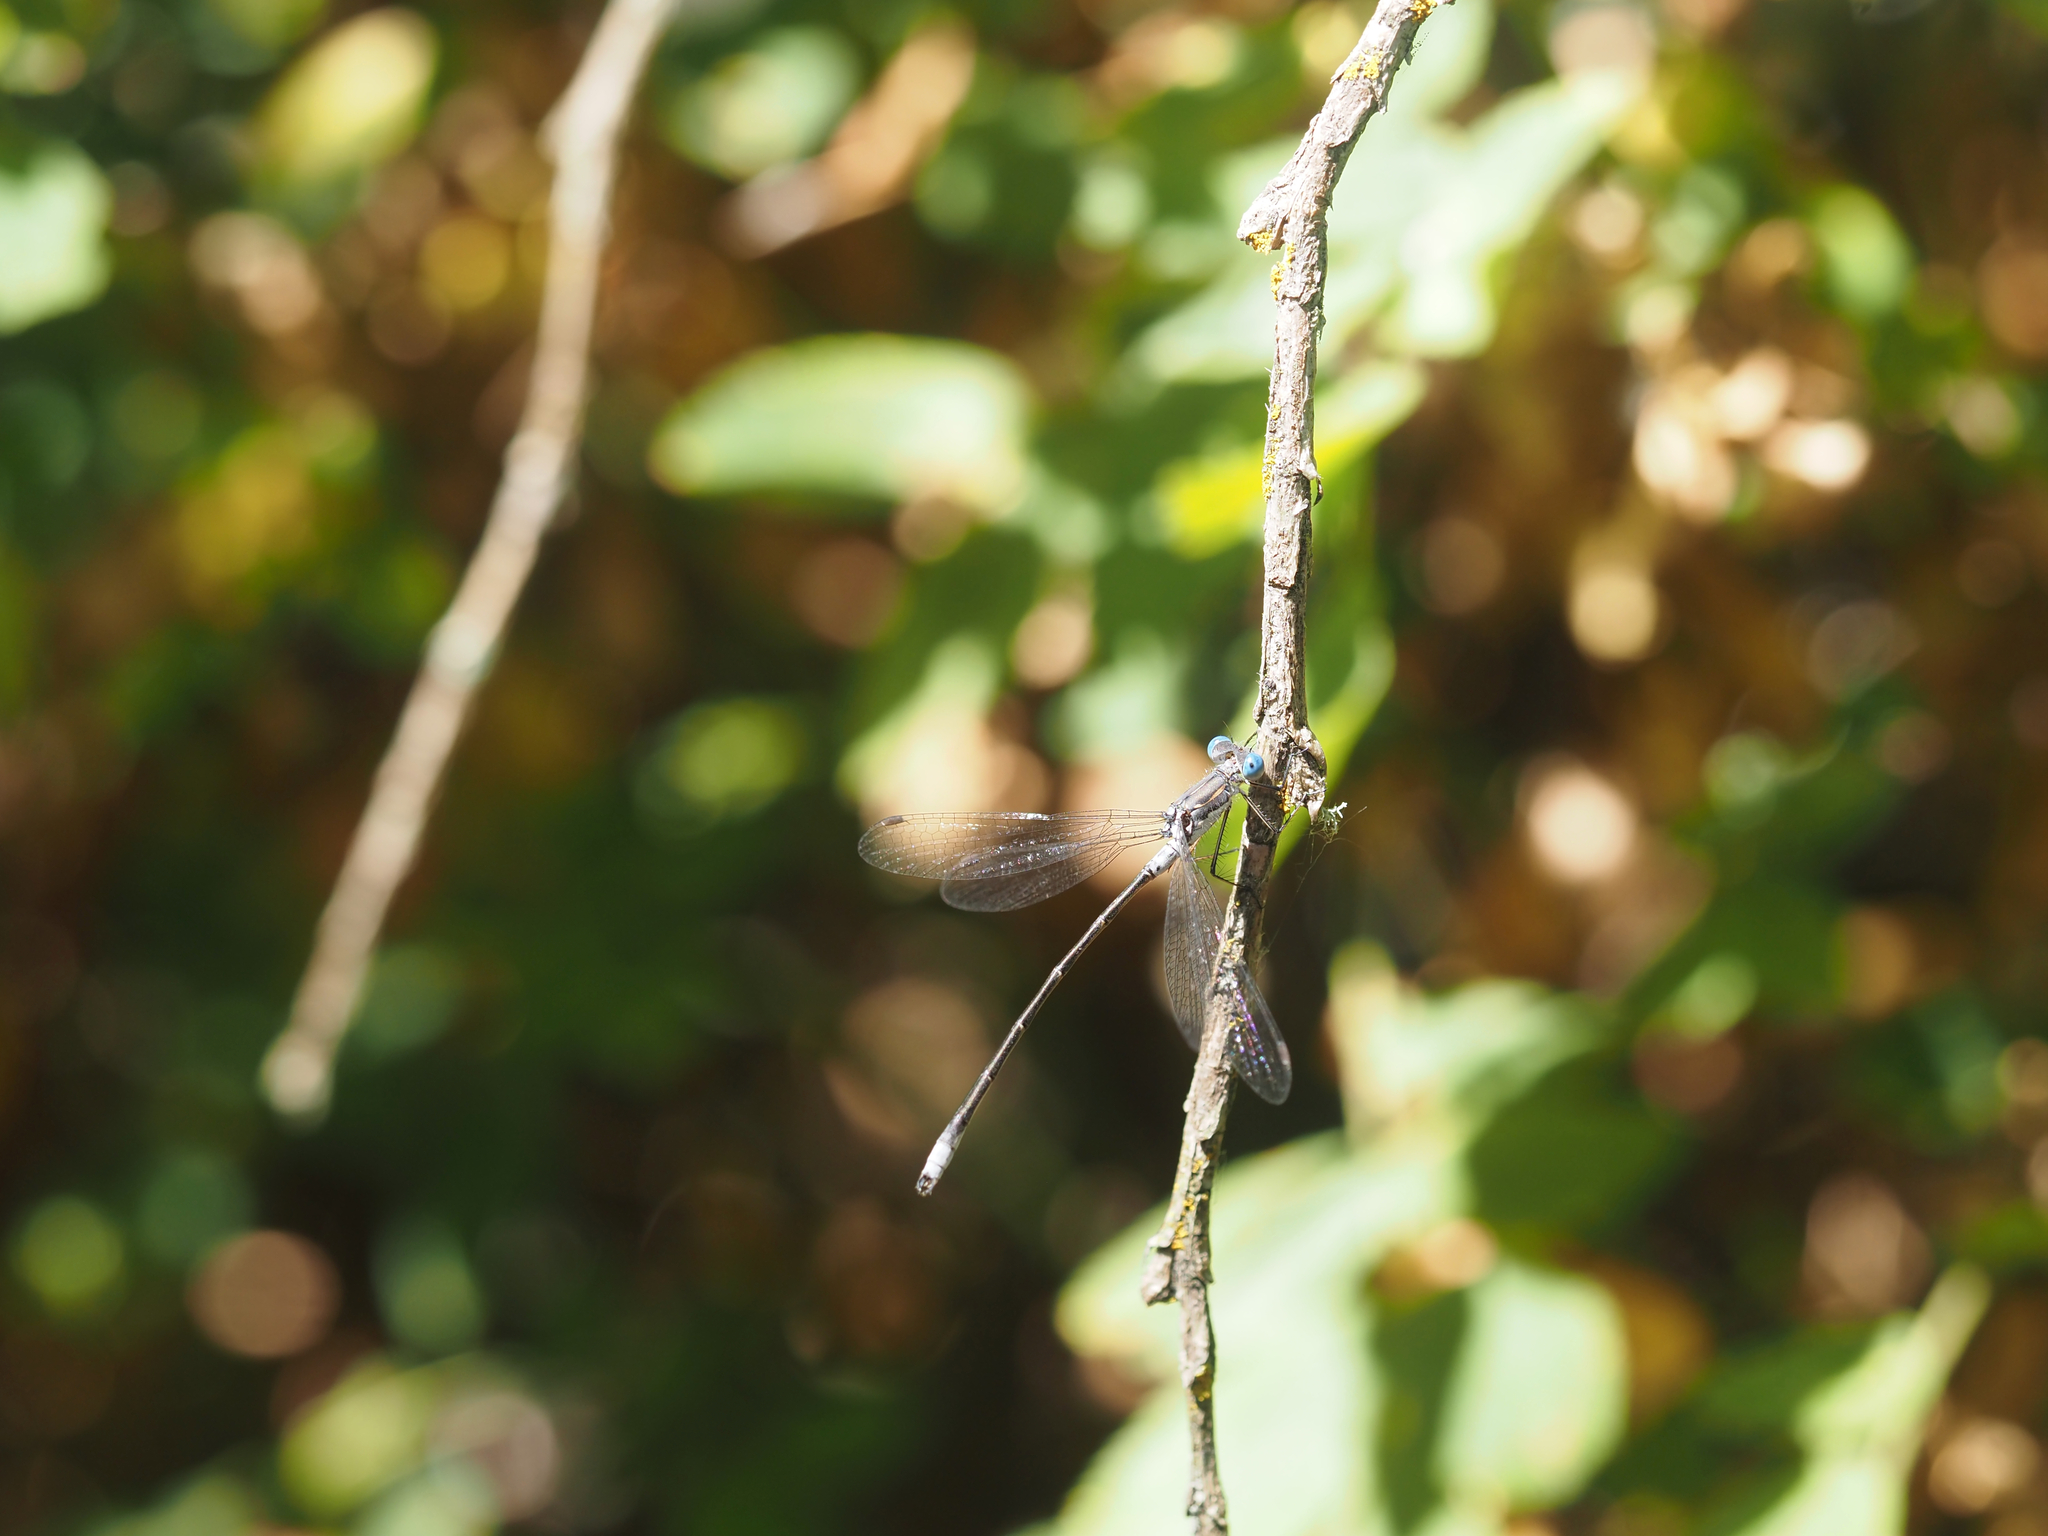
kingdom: Animalia
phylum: Arthropoda
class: Insecta
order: Odonata
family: Lestidae
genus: Lestes
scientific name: Lestes congener
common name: Spotted spreadwing
